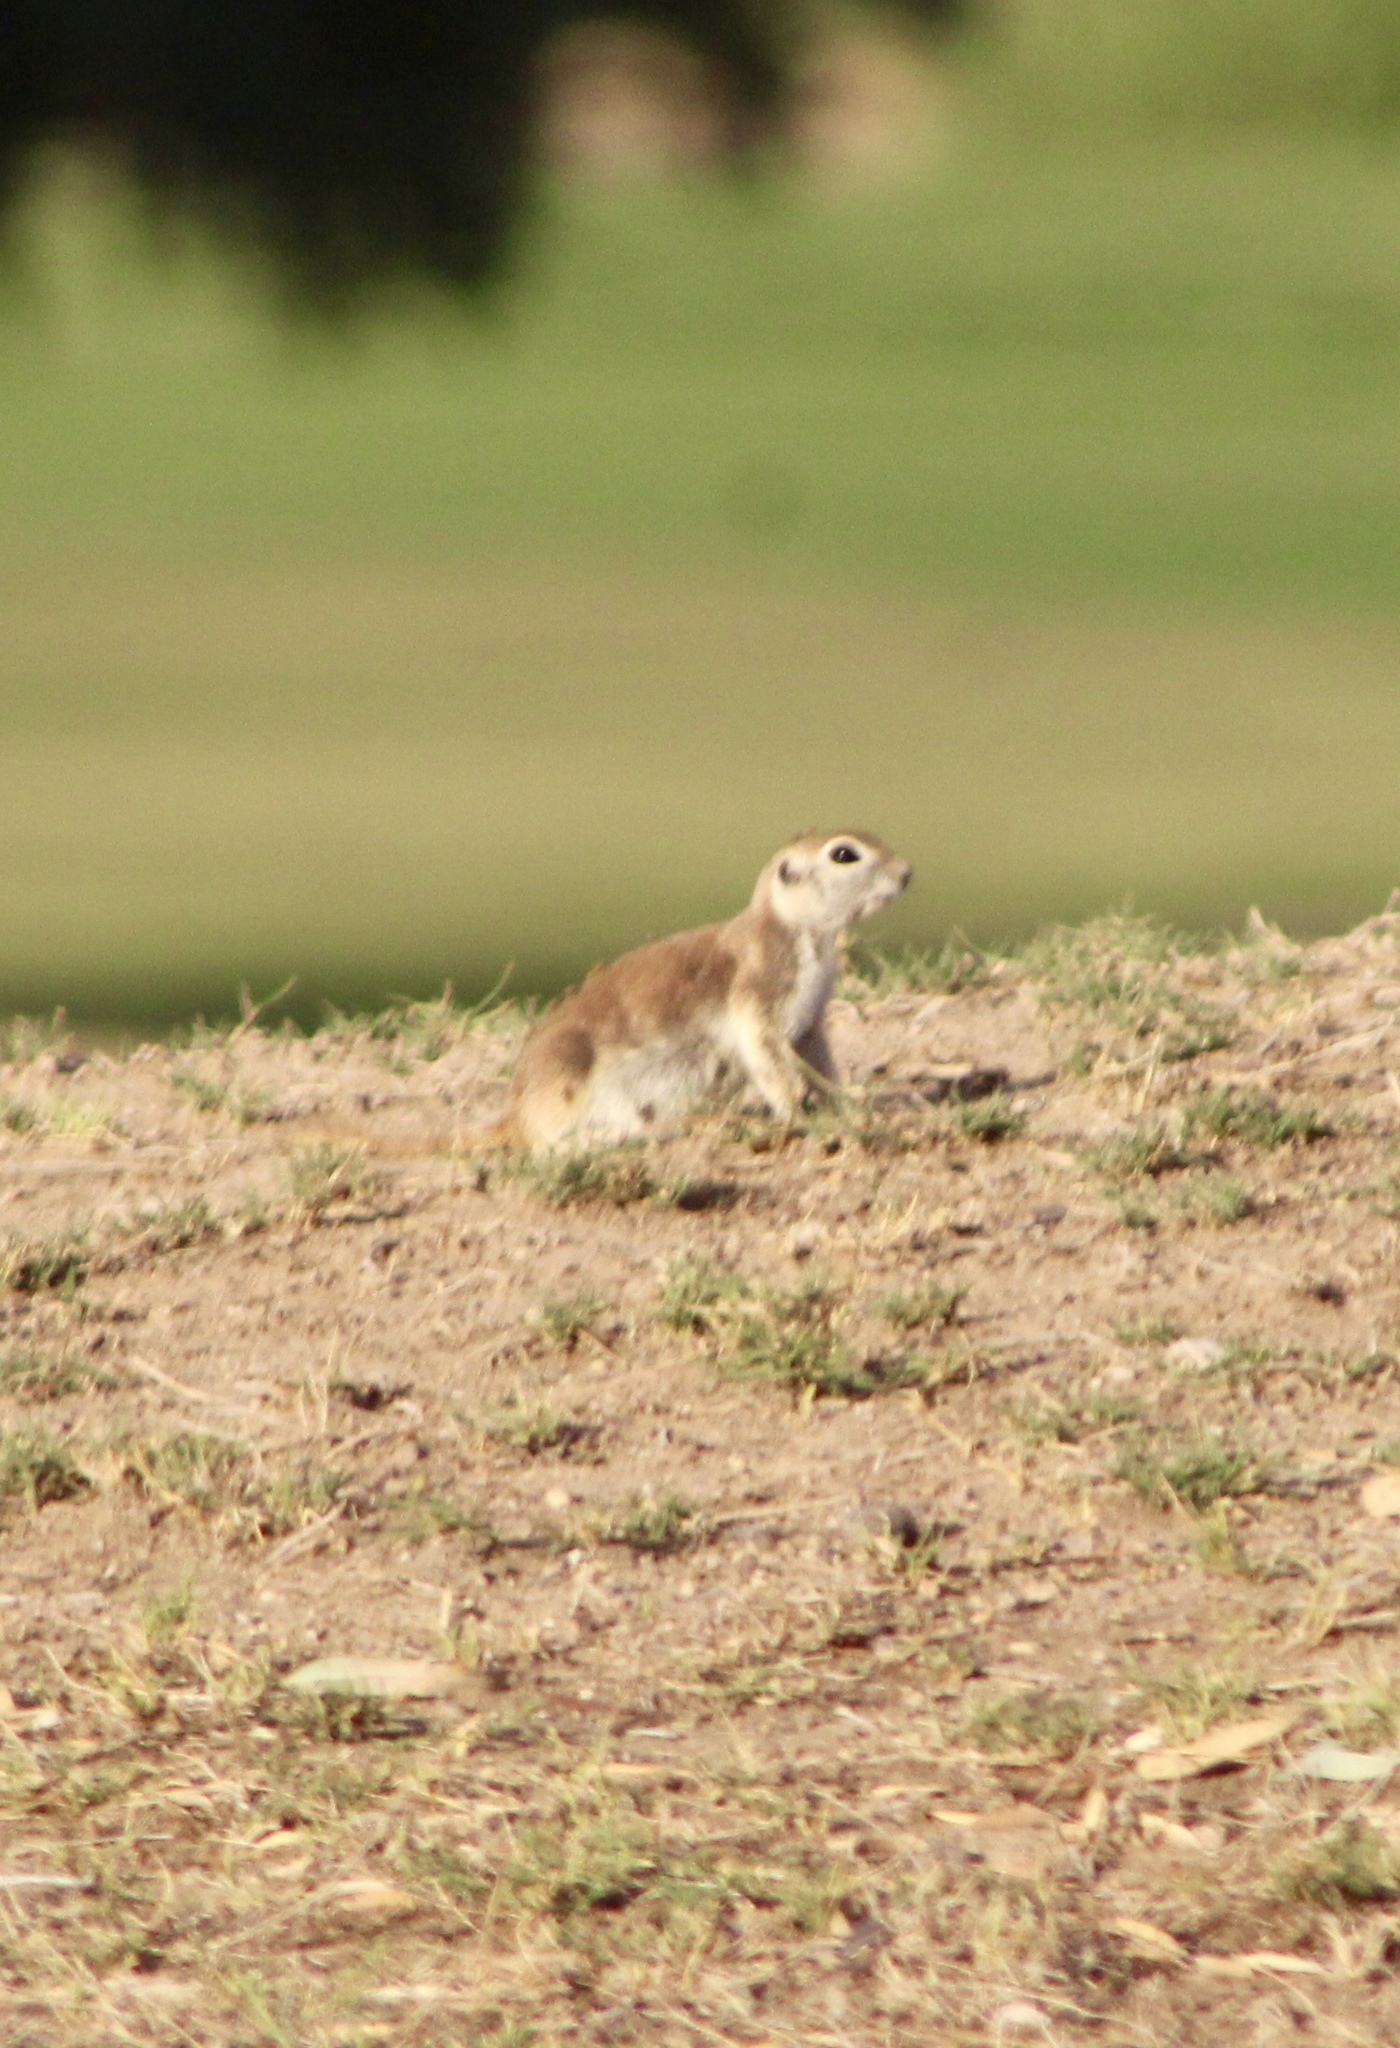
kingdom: Animalia
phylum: Chordata
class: Mammalia
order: Rodentia
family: Sciuridae
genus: Xerospermophilus
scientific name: Xerospermophilus tereticaudus
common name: Round-tailed ground squirrel
